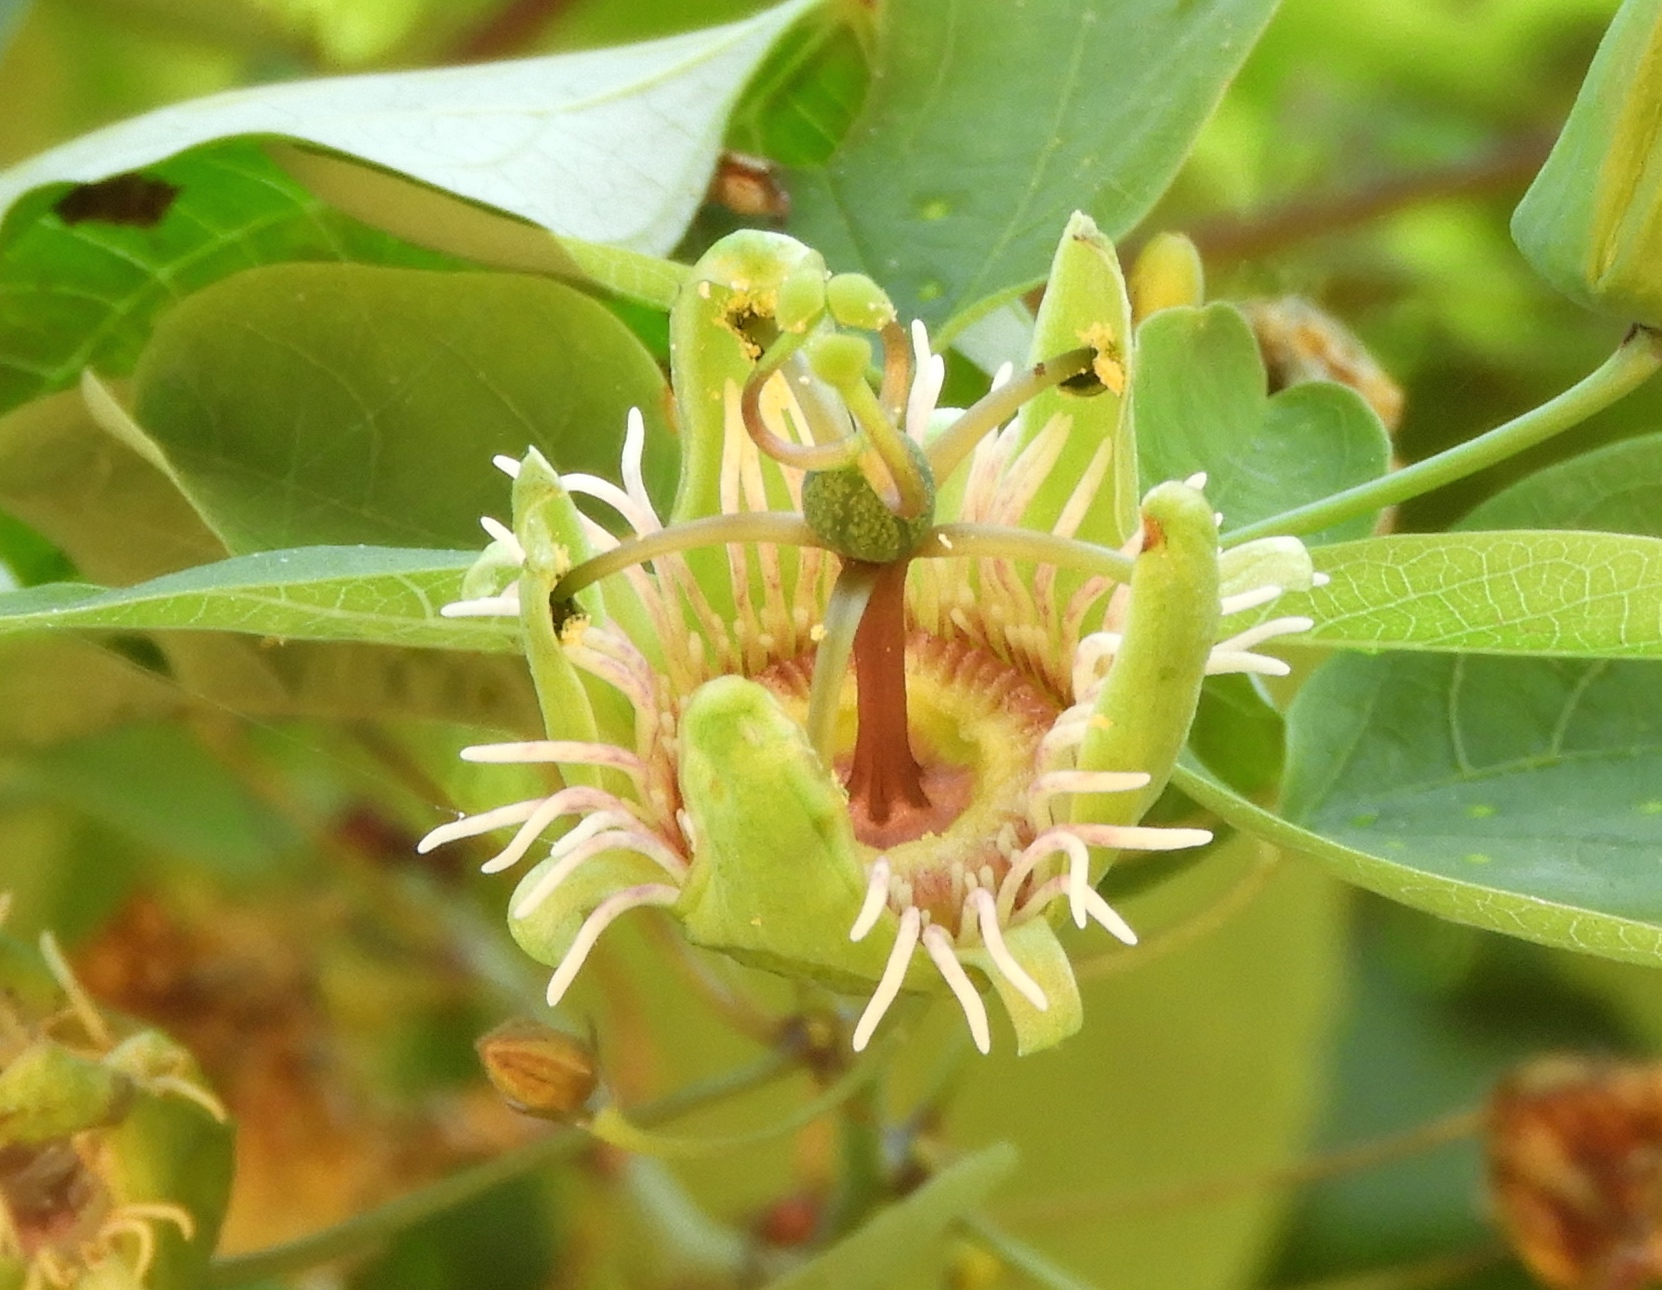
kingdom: Plantae
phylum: Tracheophyta
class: Magnoliopsida
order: Malpighiales
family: Passifloraceae
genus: Passiflora
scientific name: Passiflora mexicana
